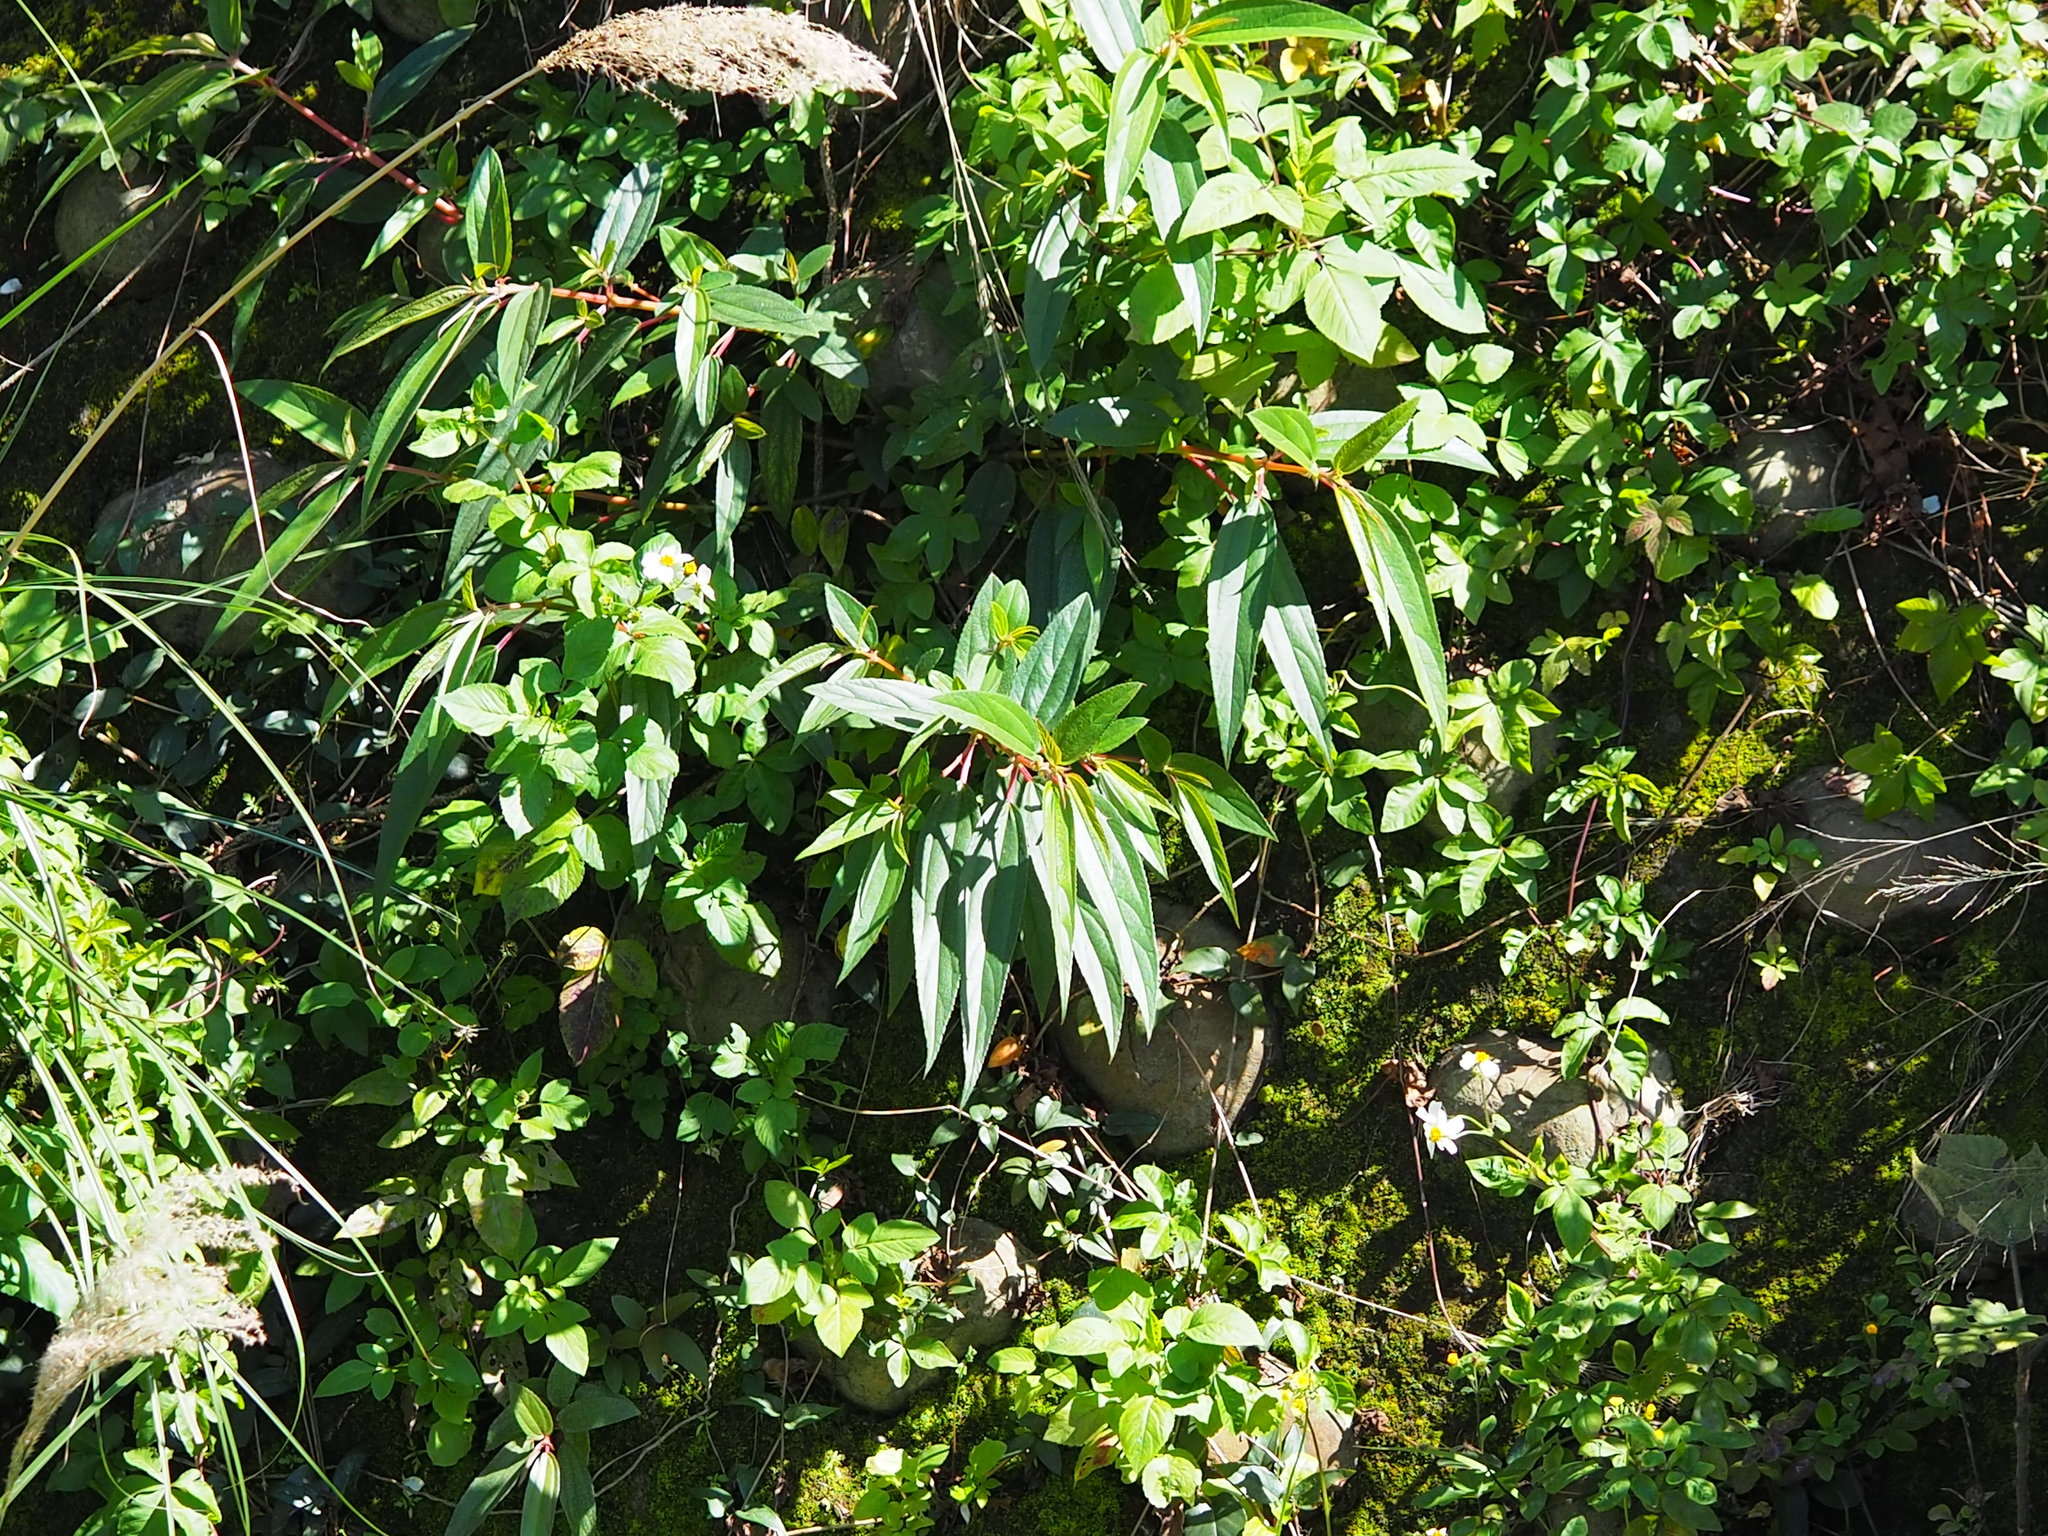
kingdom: Plantae
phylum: Tracheophyta
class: Magnoliopsida
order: Rosales
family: Urticaceae
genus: Boehmeria
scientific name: Boehmeria densiflora
